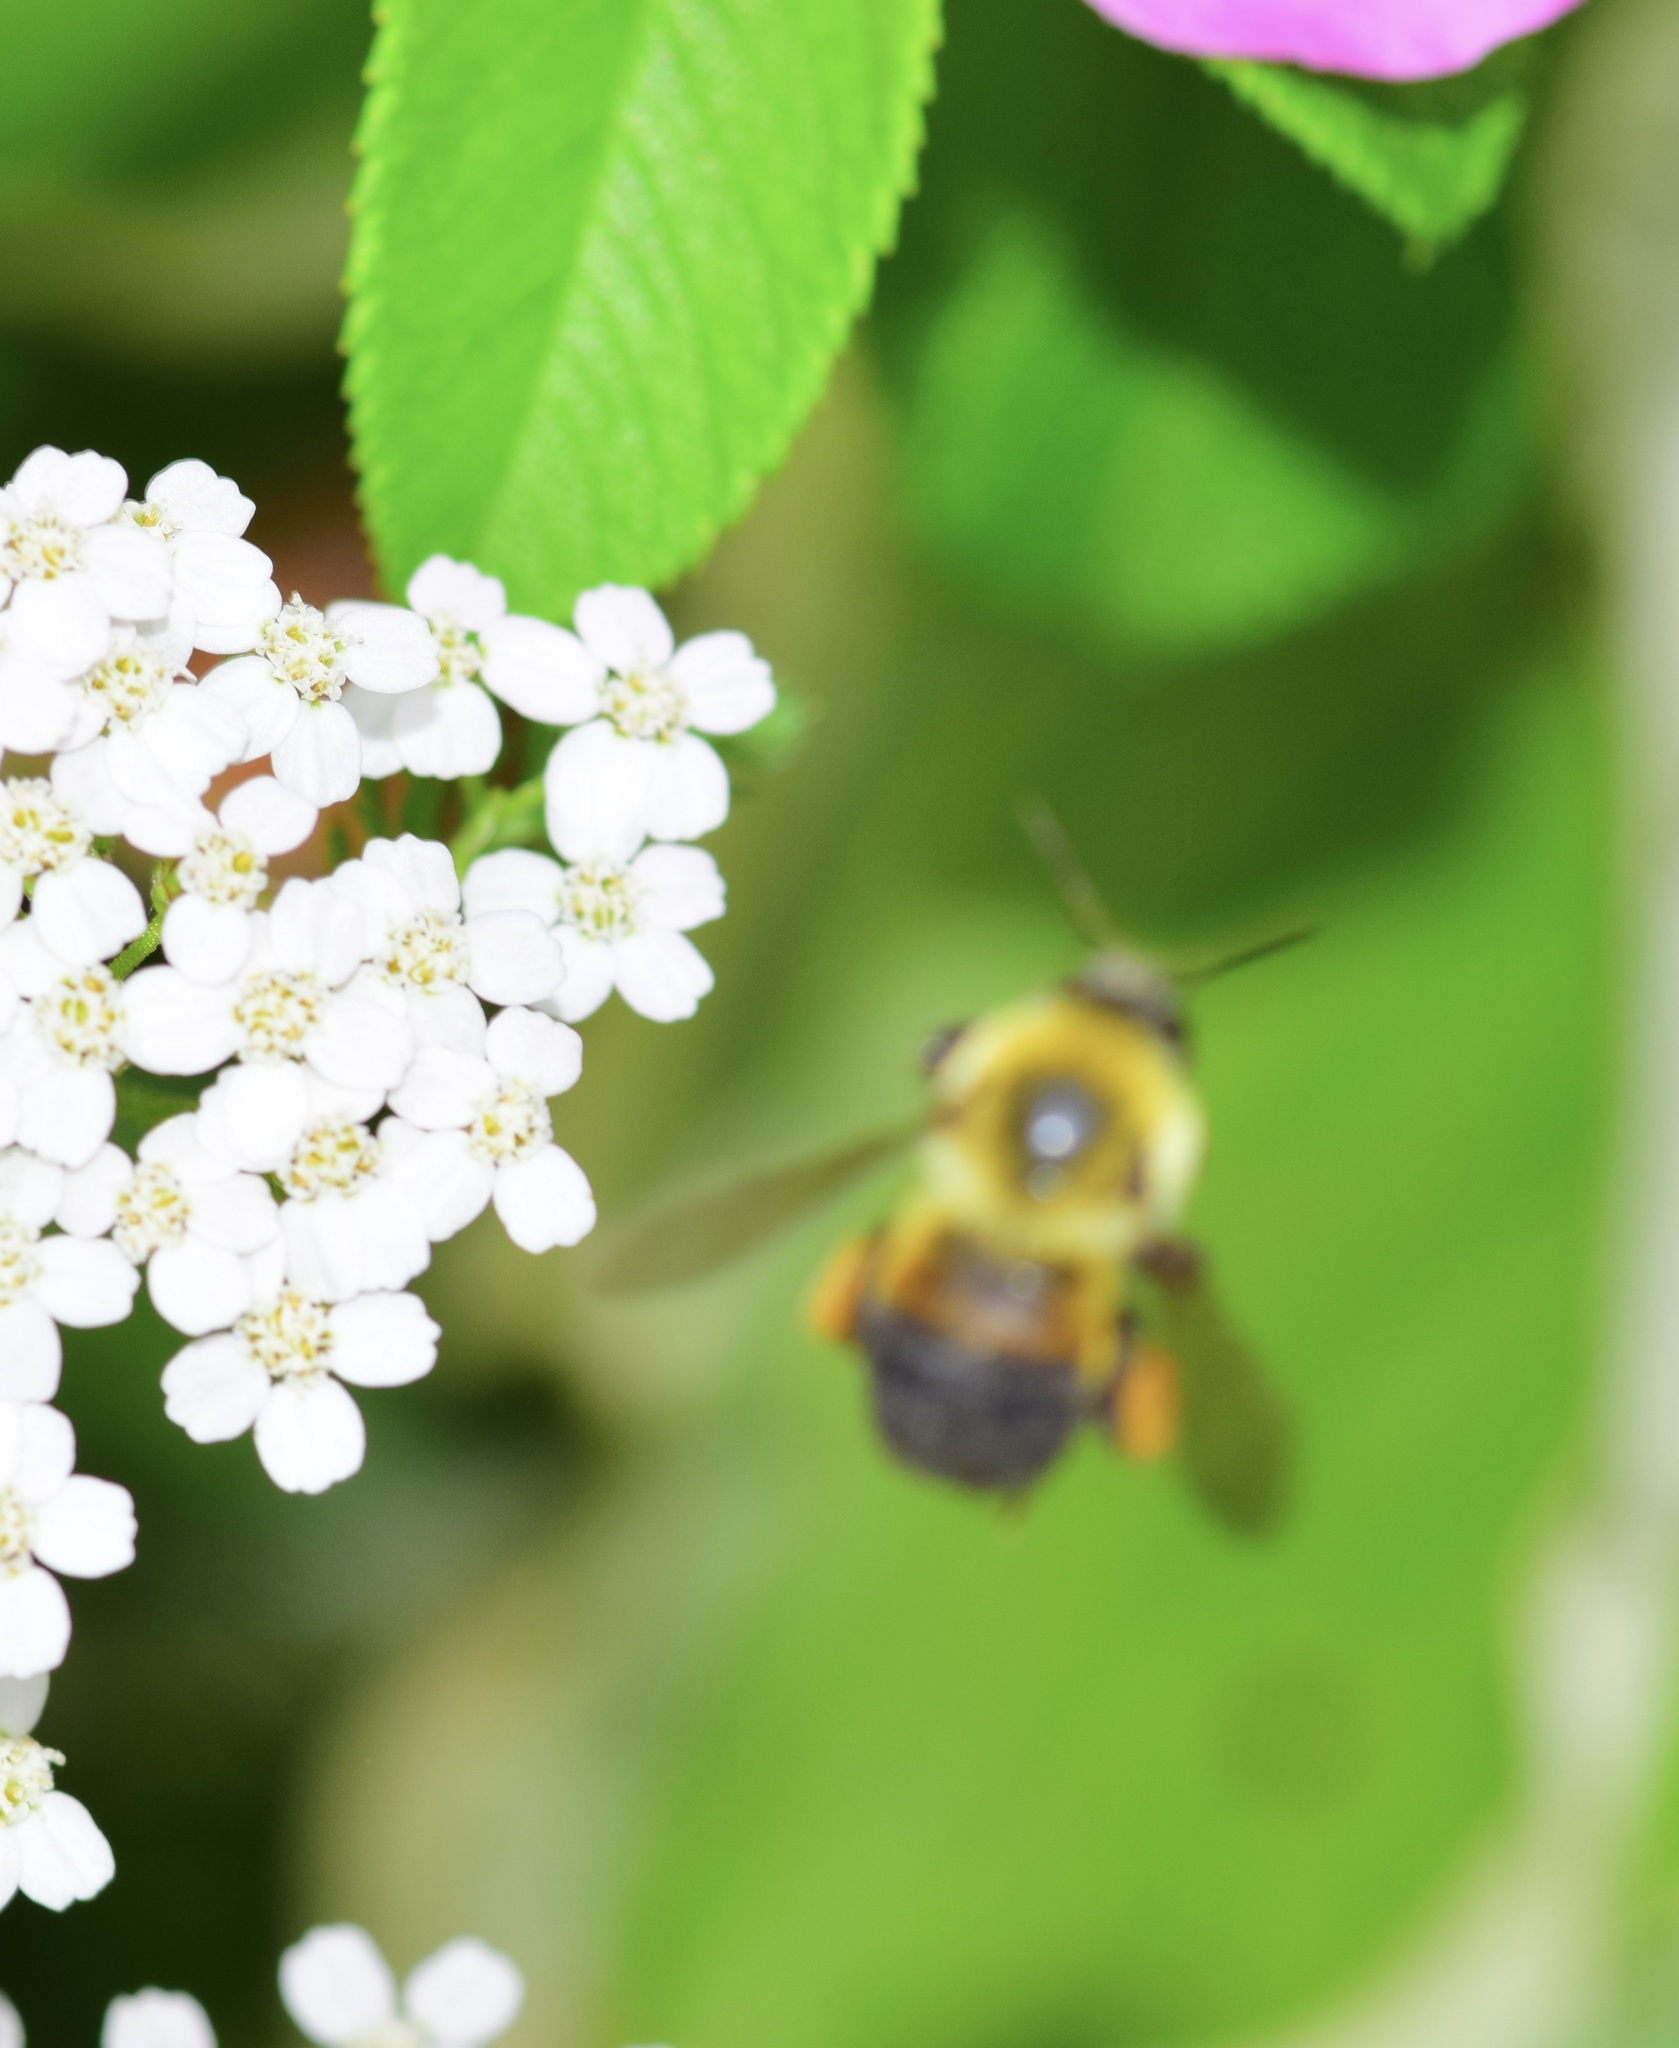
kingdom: Animalia
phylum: Arthropoda
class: Insecta
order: Hymenoptera
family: Apidae
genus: Bombus
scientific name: Bombus griseocollis
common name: Brown-belted bumble bee
